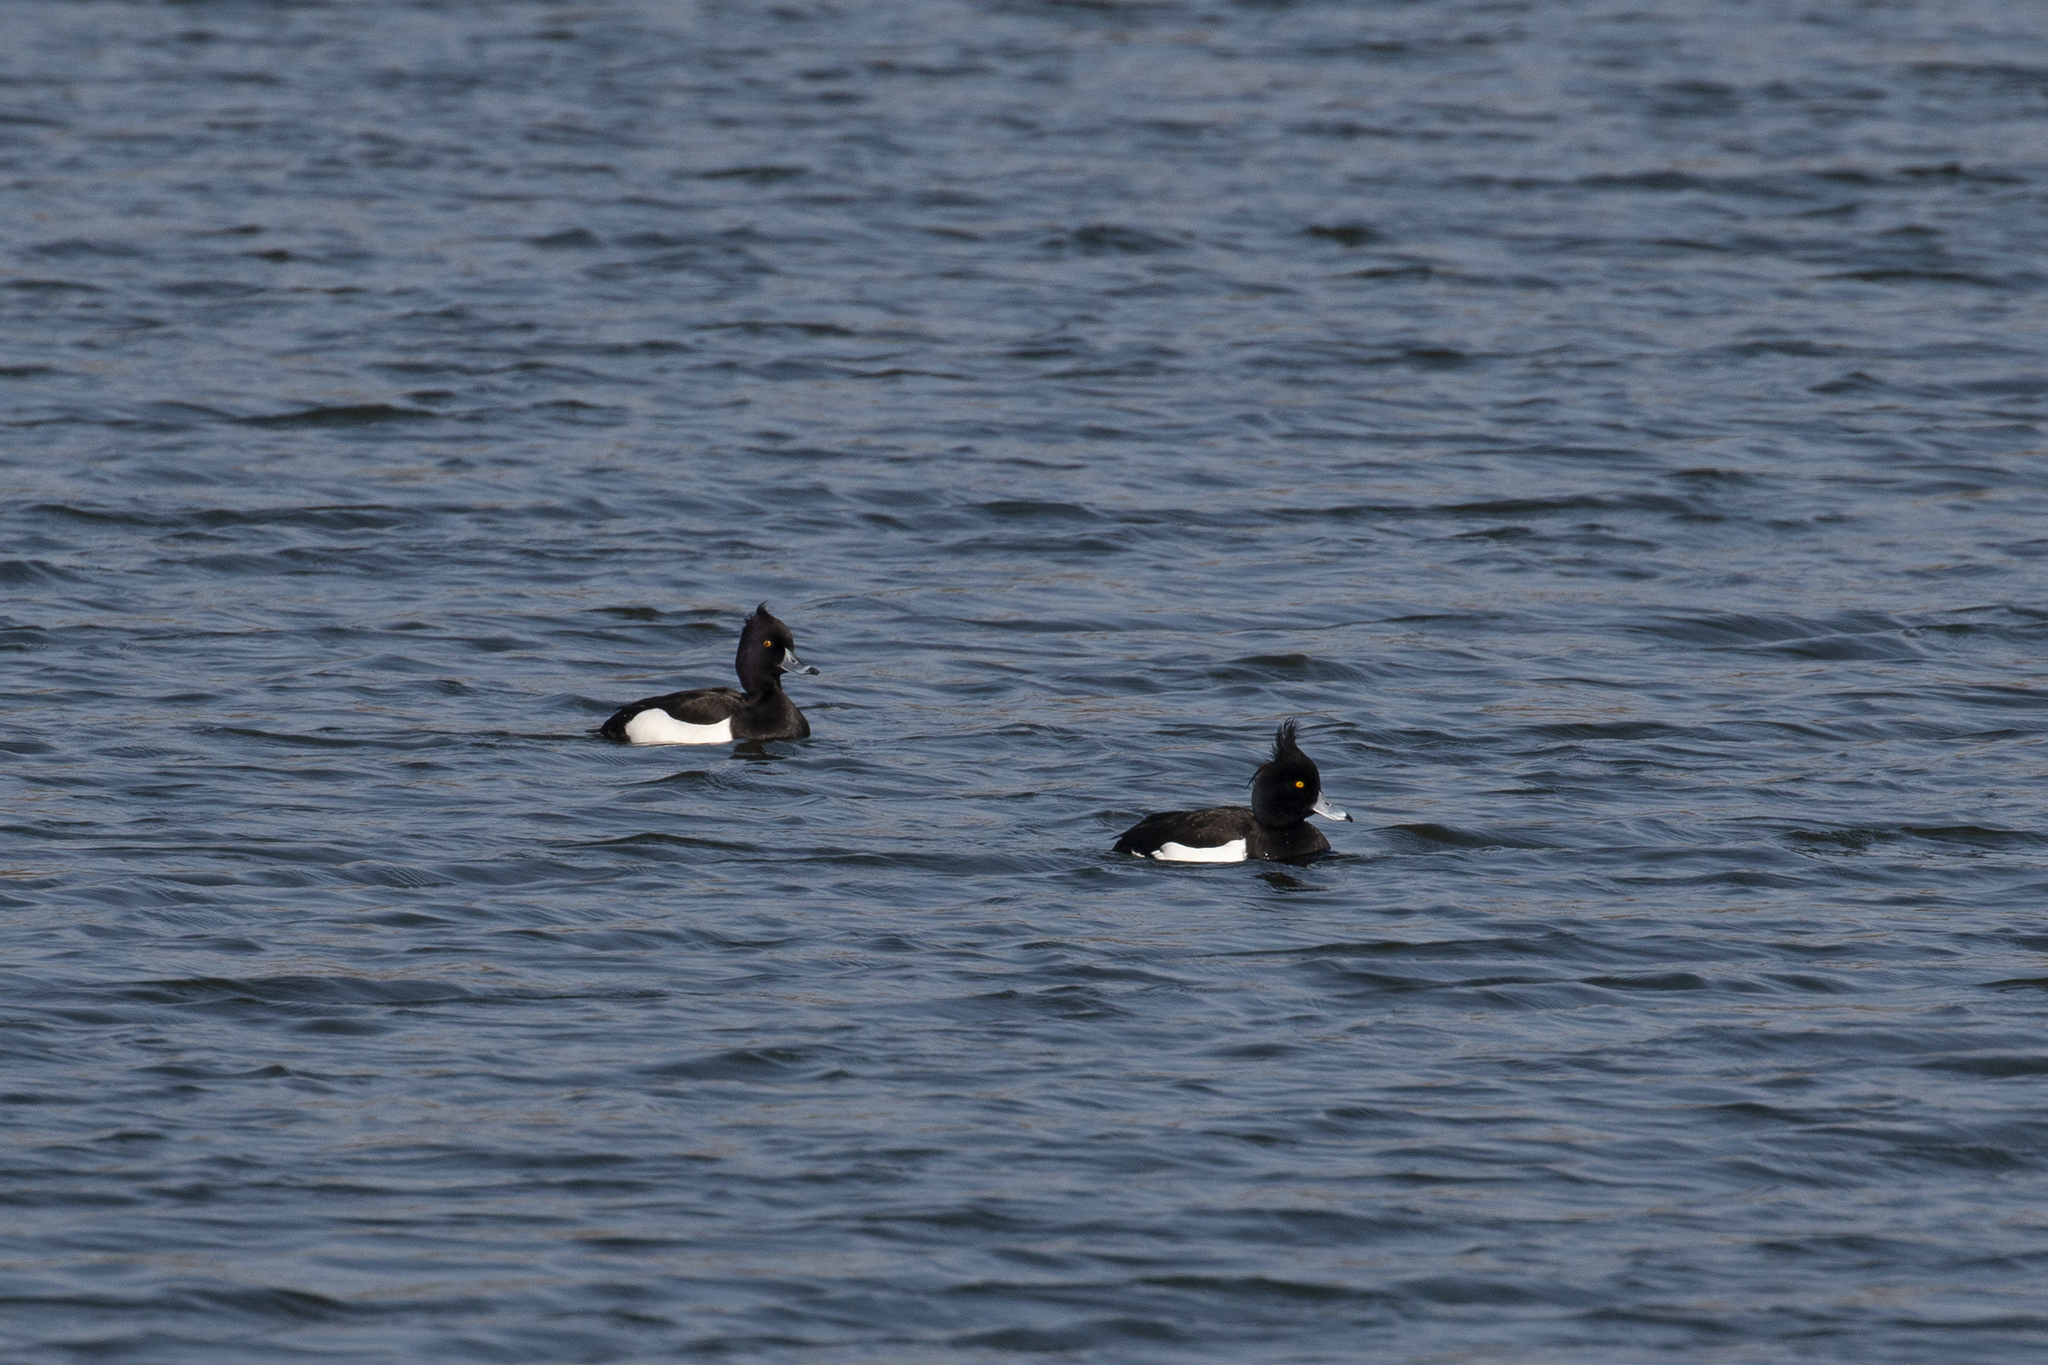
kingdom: Animalia
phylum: Chordata
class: Aves
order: Anseriformes
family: Anatidae
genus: Aythya
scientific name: Aythya fuligula
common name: Tufted duck
